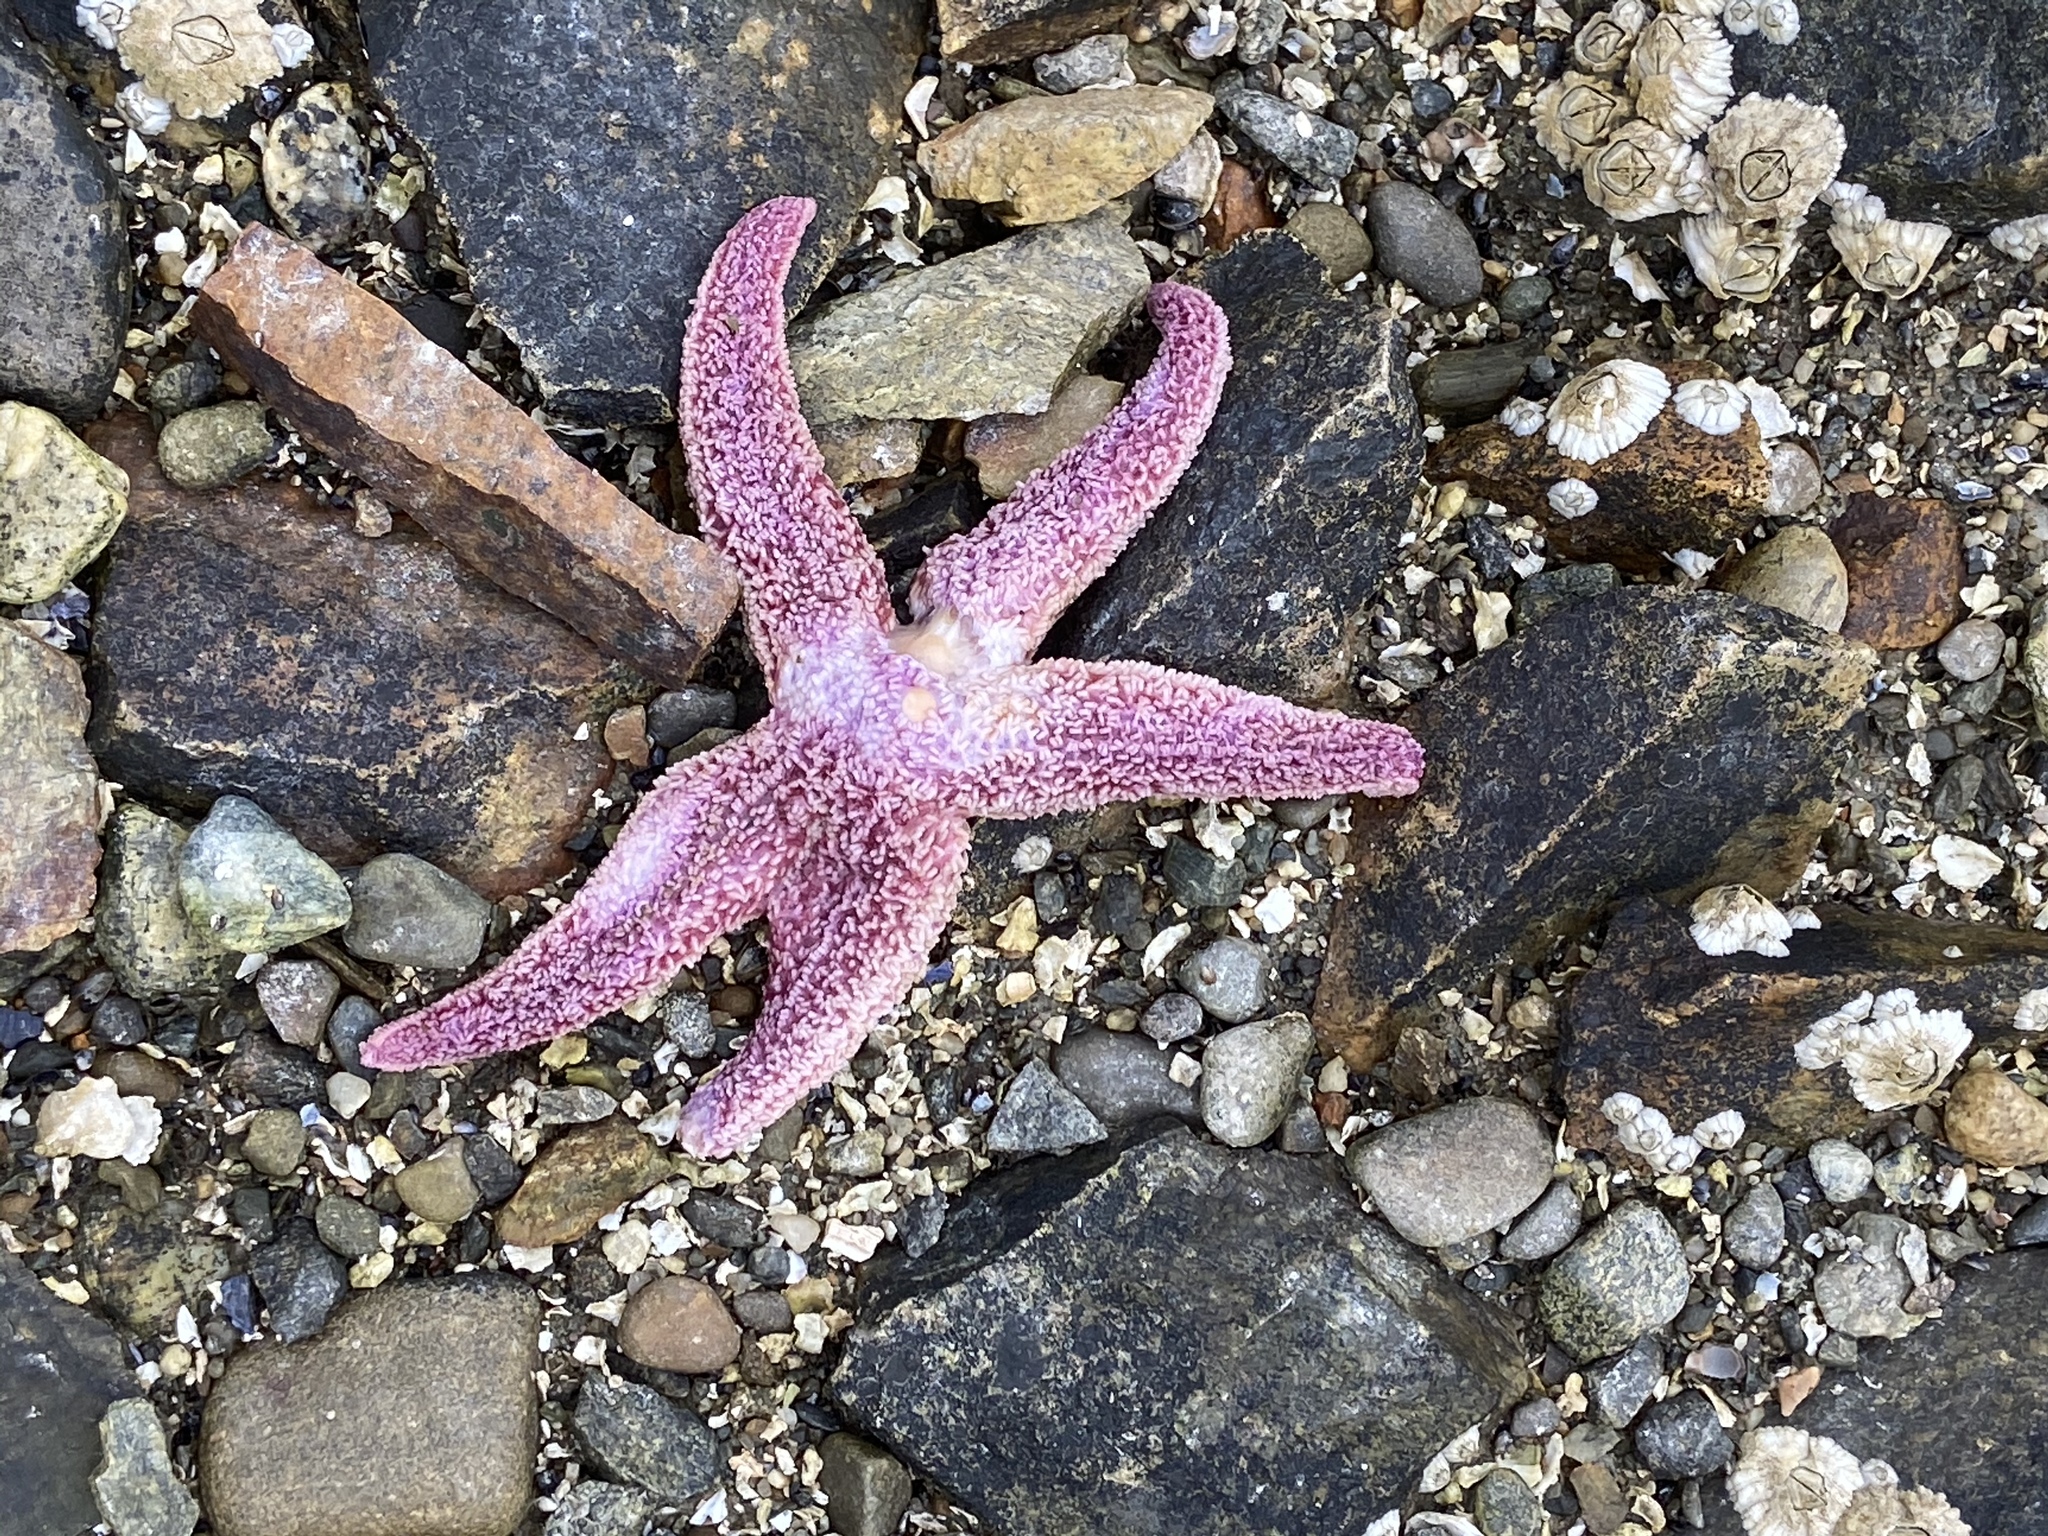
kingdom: Animalia
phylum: Echinodermata
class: Asteroidea
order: Forcipulatida
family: Asteriidae
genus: Asterias
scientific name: Asterias rubens
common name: Common starfish
